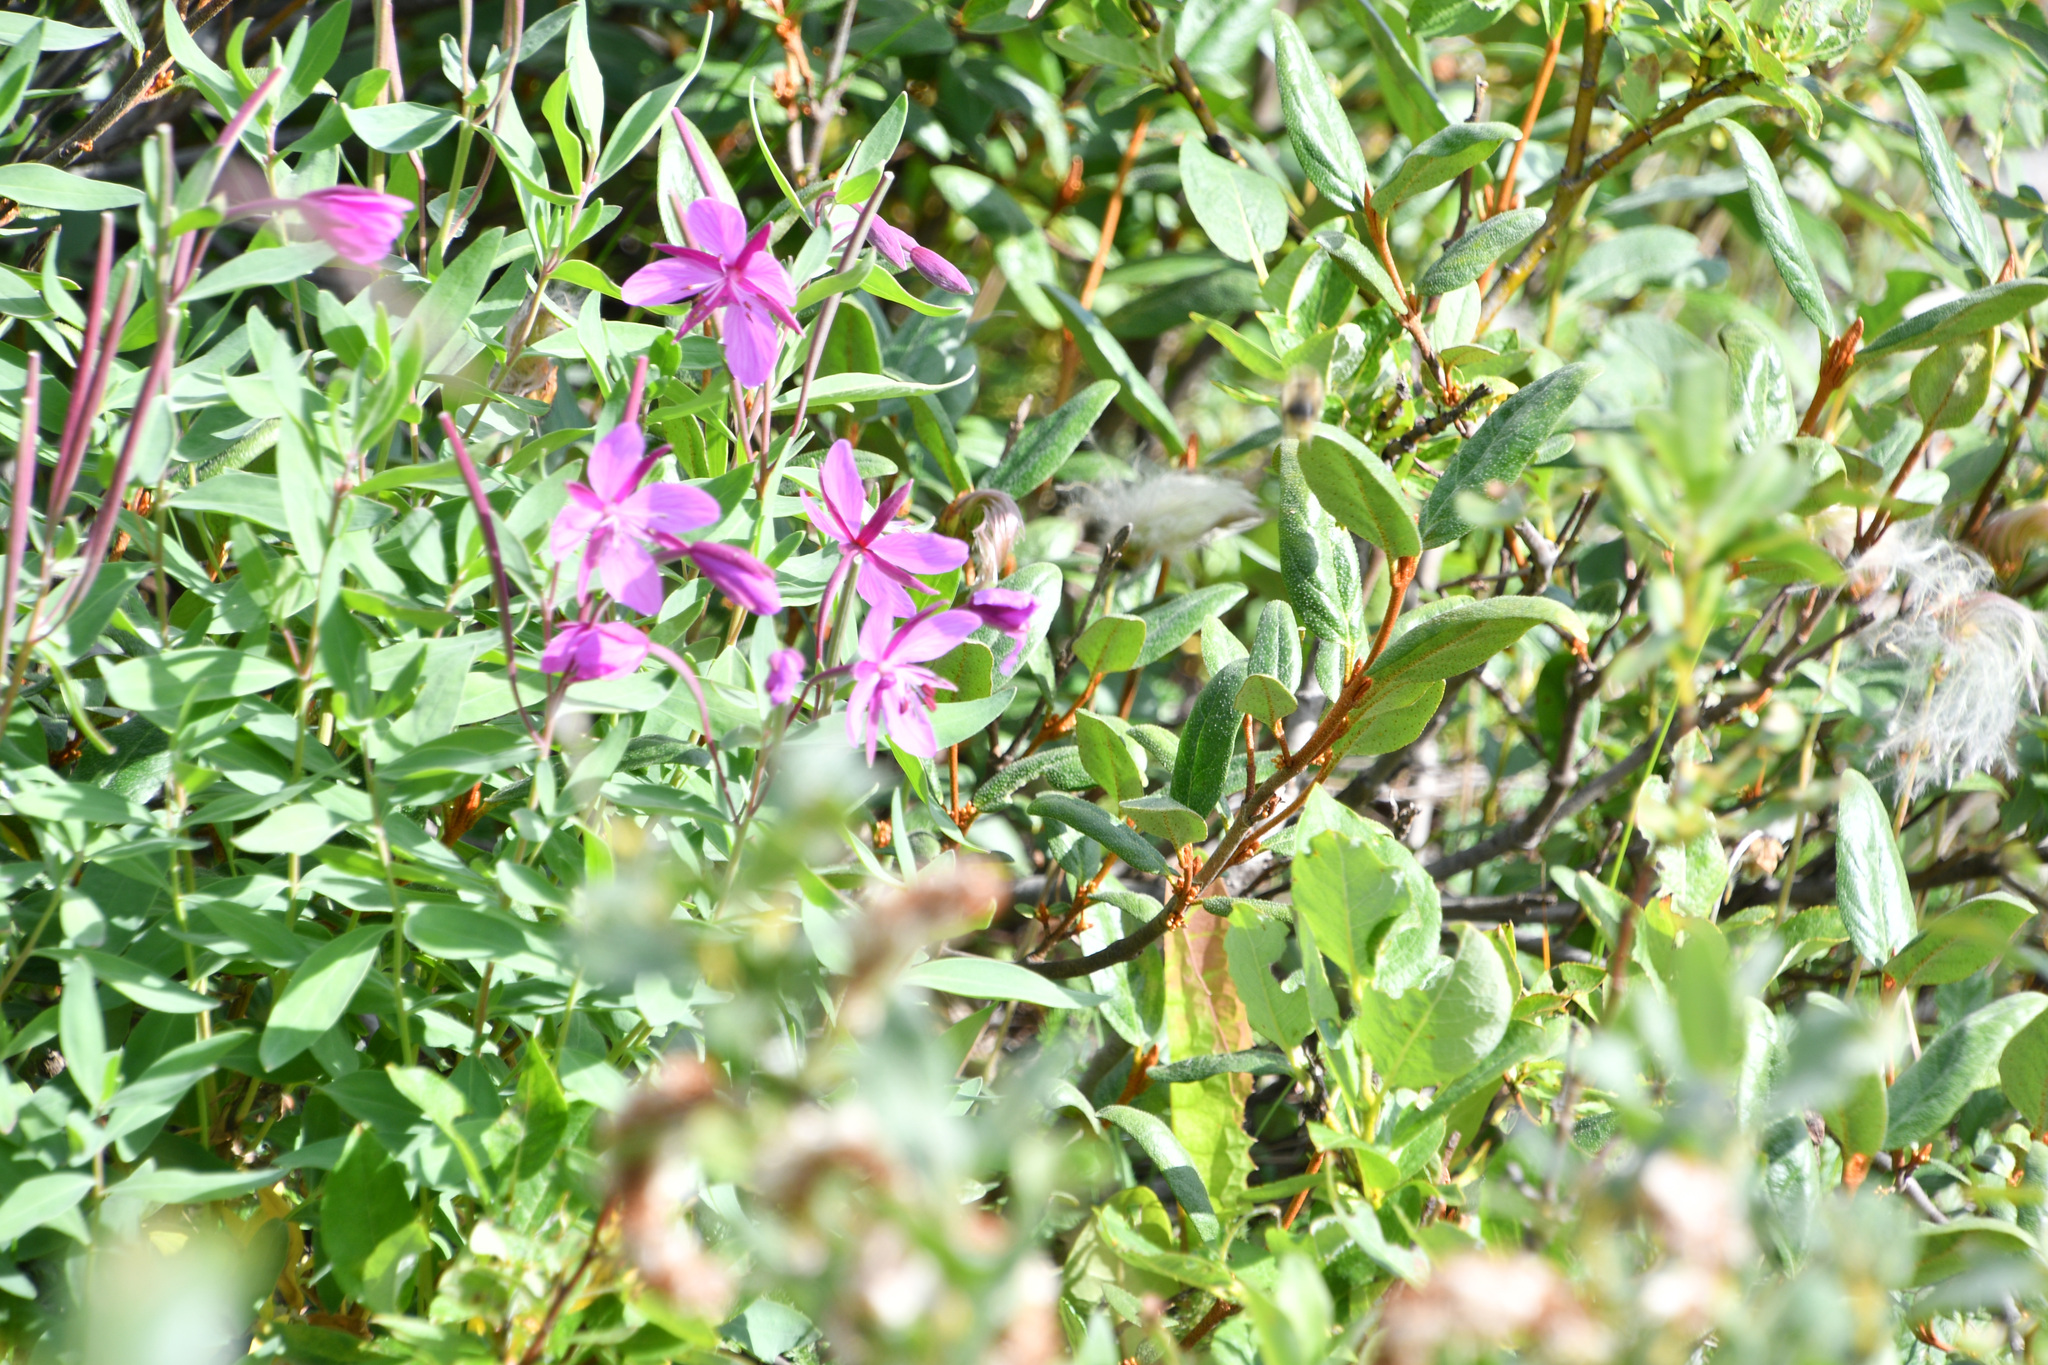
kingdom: Plantae
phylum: Tracheophyta
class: Magnoliopsida
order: Myrtales
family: Onagraceae
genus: Chamaenerion
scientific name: Chamaenerion latifolium
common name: Dwarf fireweed
